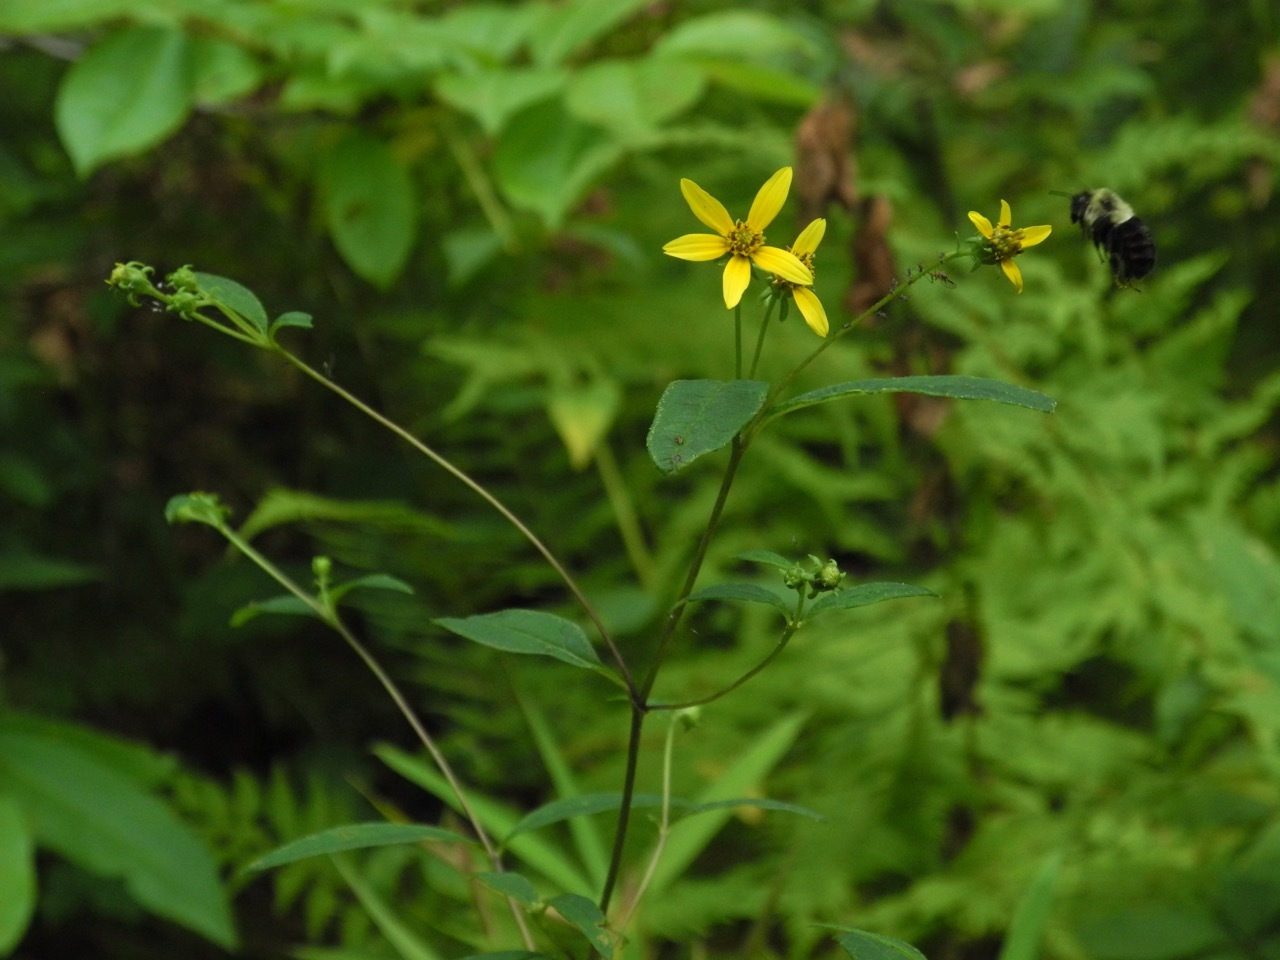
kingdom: Plantae
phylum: Tracheophyta
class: Magnoliopsida
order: Asterales
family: Asteraceae
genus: Helianthus
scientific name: Helianthus microcephalus
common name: Woodland sunflower
